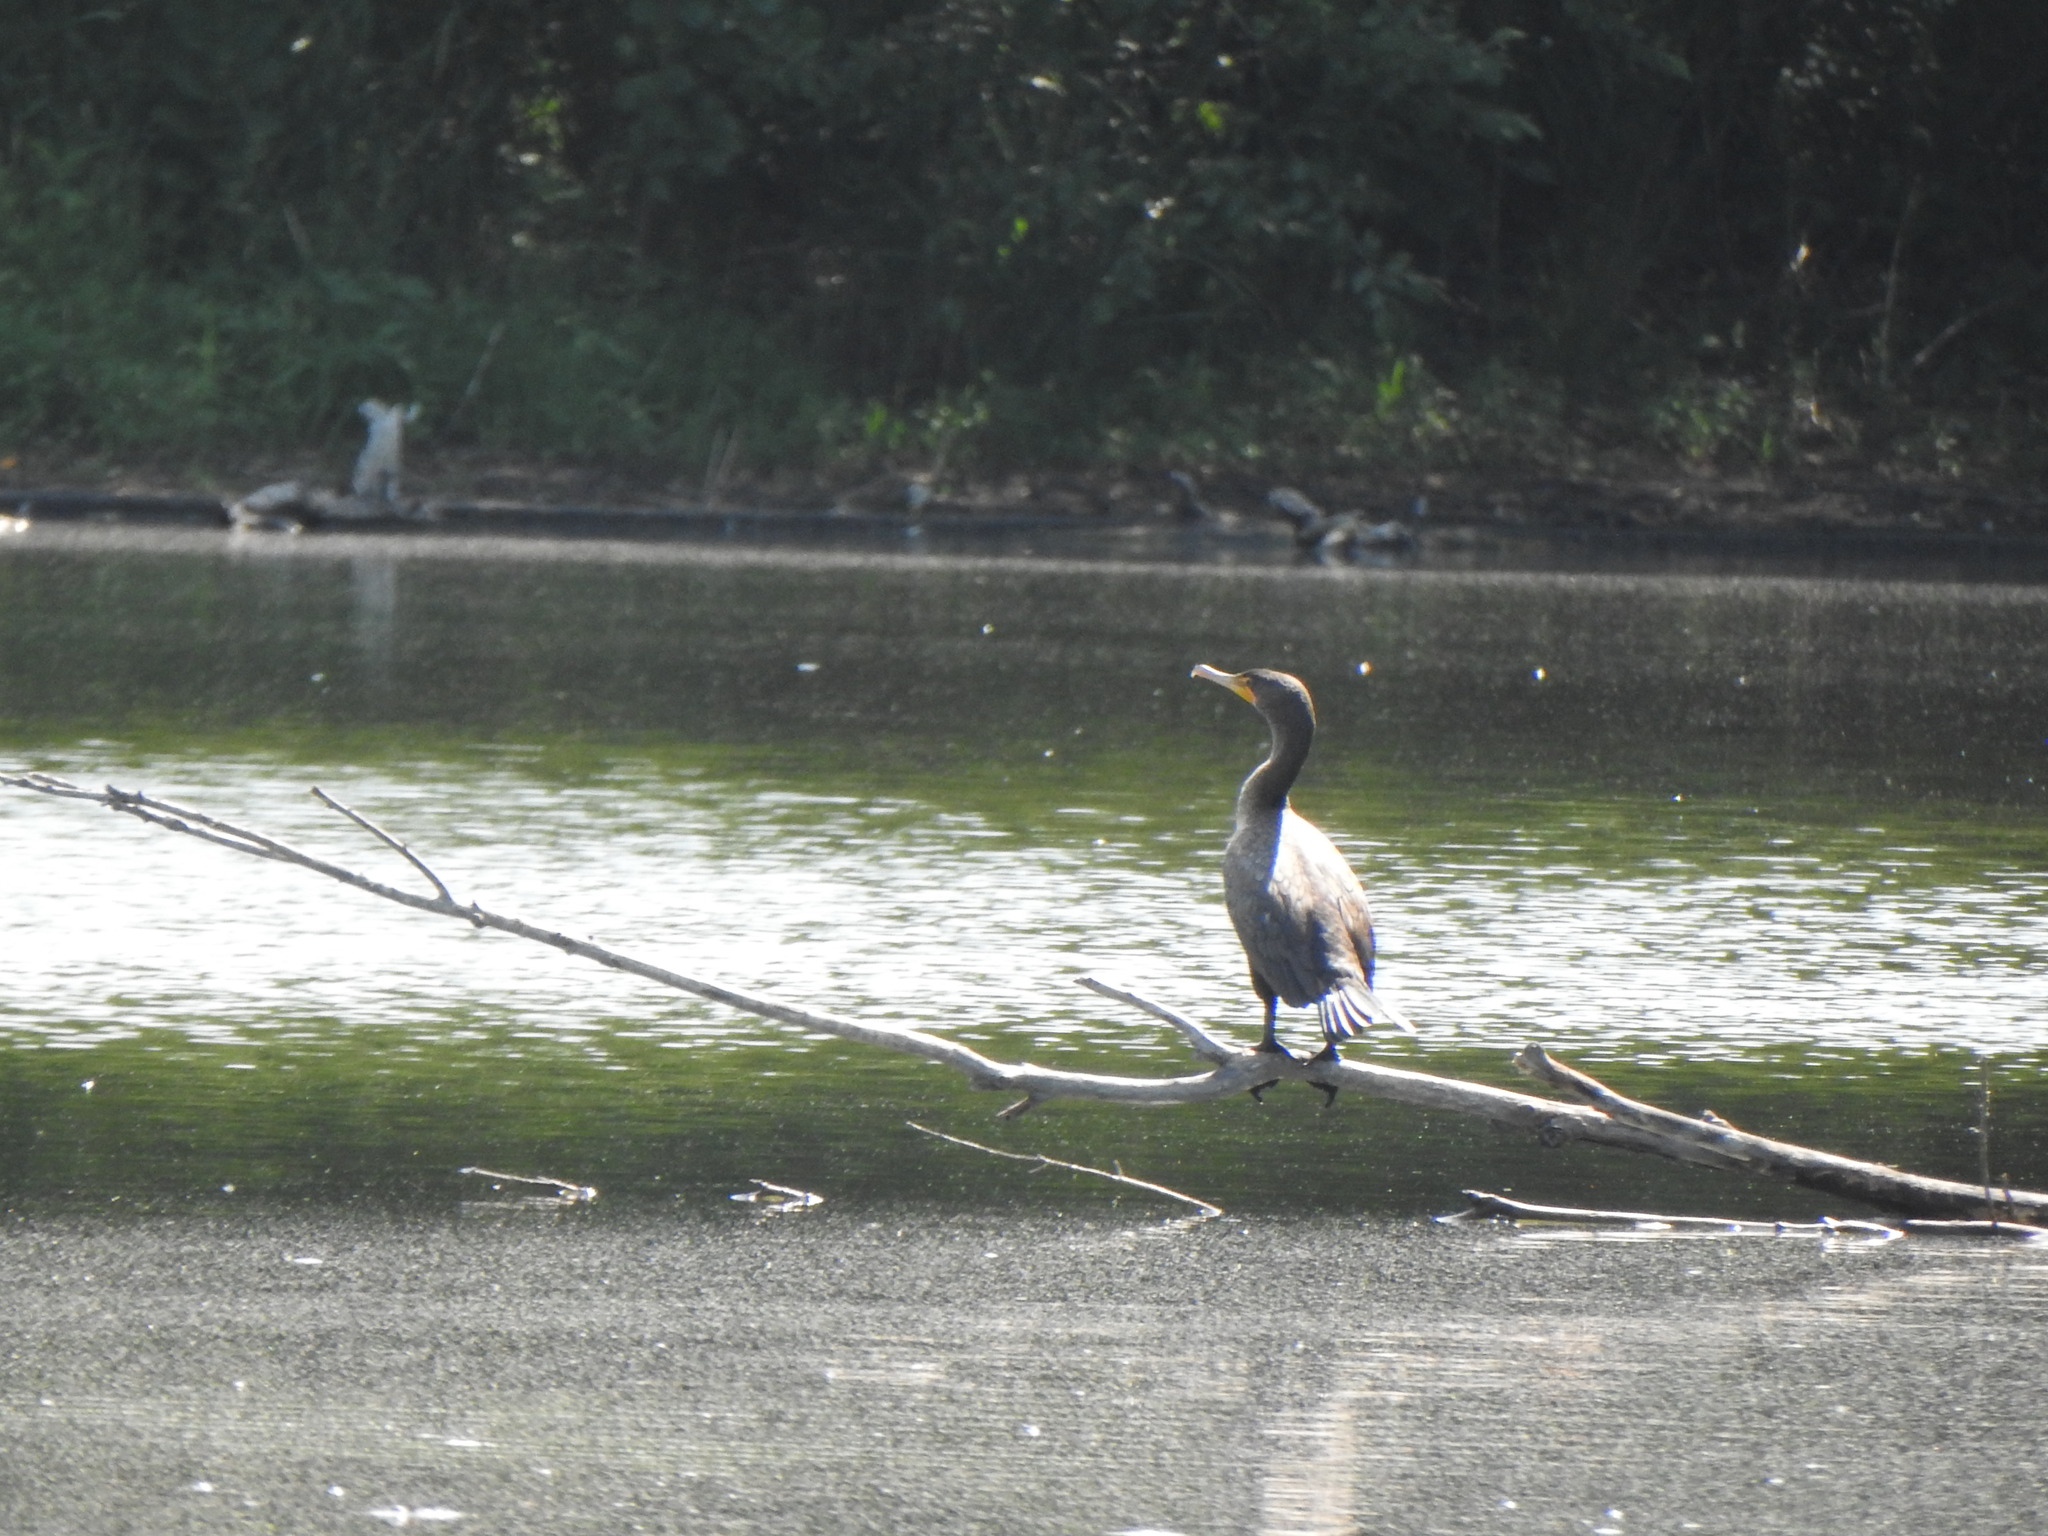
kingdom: Animalia
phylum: Chordata
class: Aves
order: Suliformes
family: Phalacrocoracidae
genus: Phalacrocorax
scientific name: Phalacrocorax auritus
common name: Double-crested cormorant
